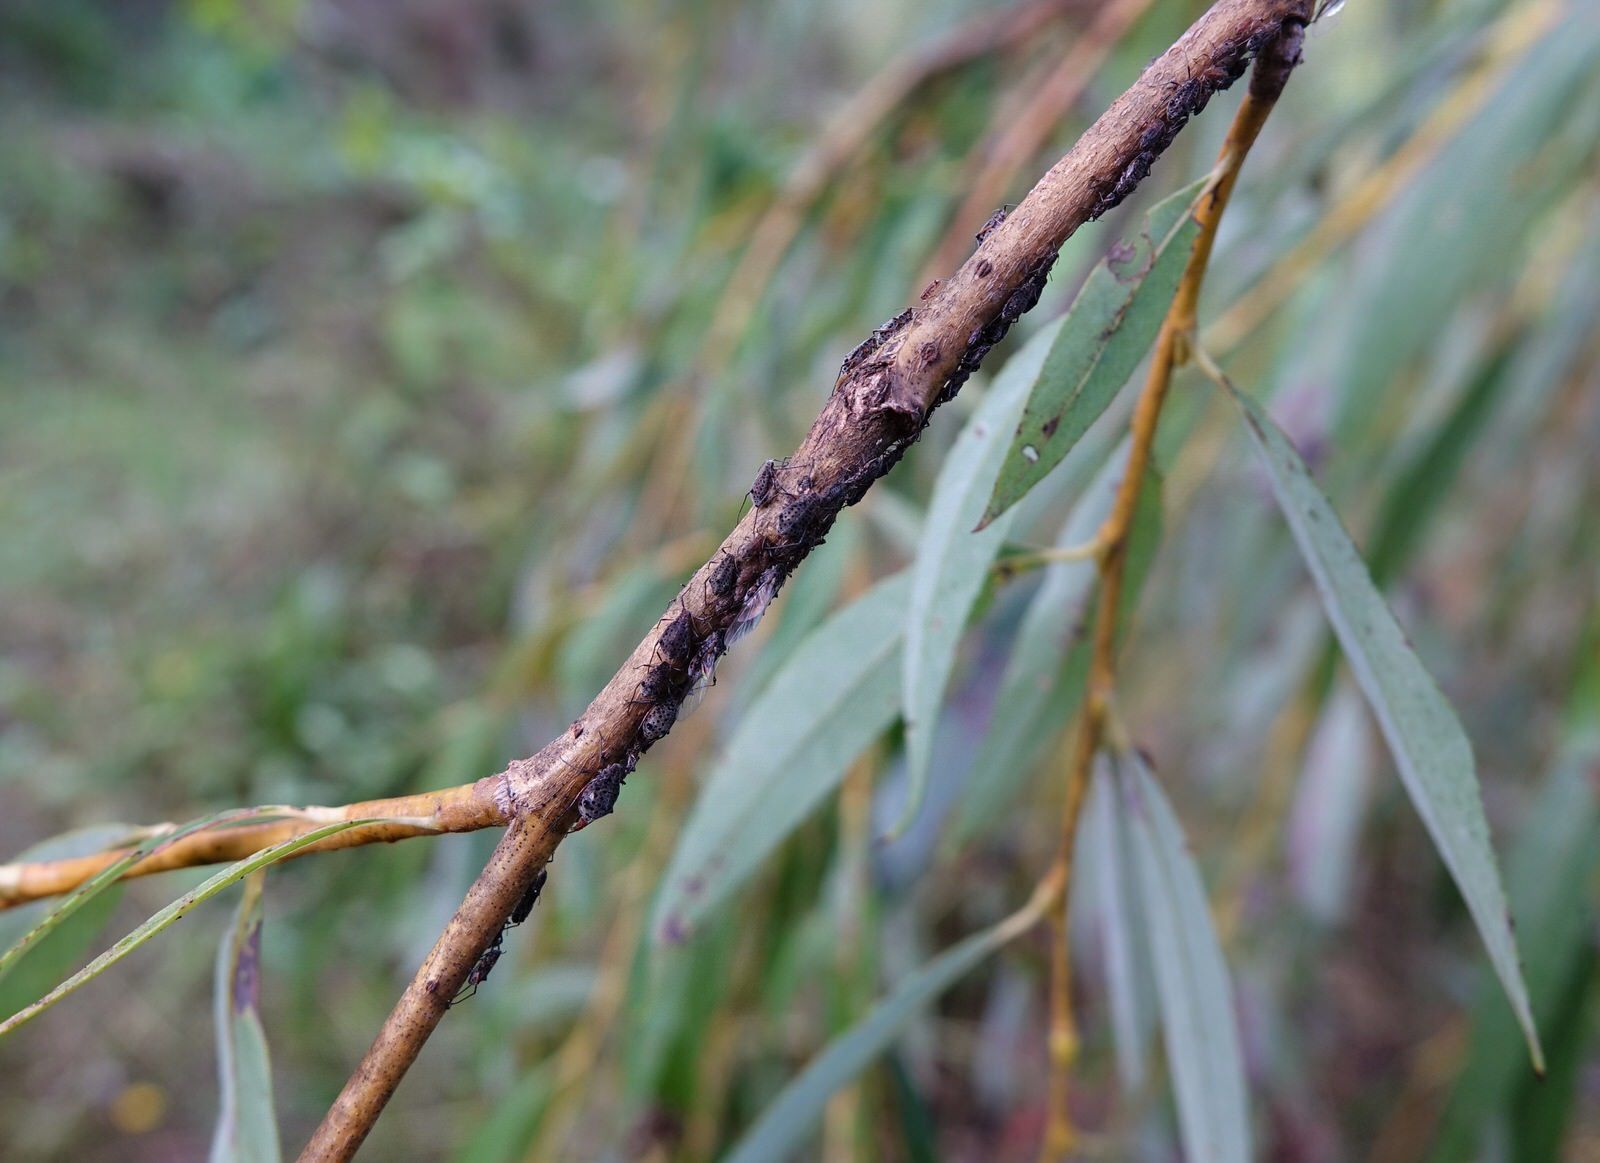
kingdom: Animalia
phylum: Arthropoda
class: Insecta
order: Hemiptera
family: Aphididae
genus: Tuberolachnus
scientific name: Tuberolachnus salignus
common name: Giant willow aphid
